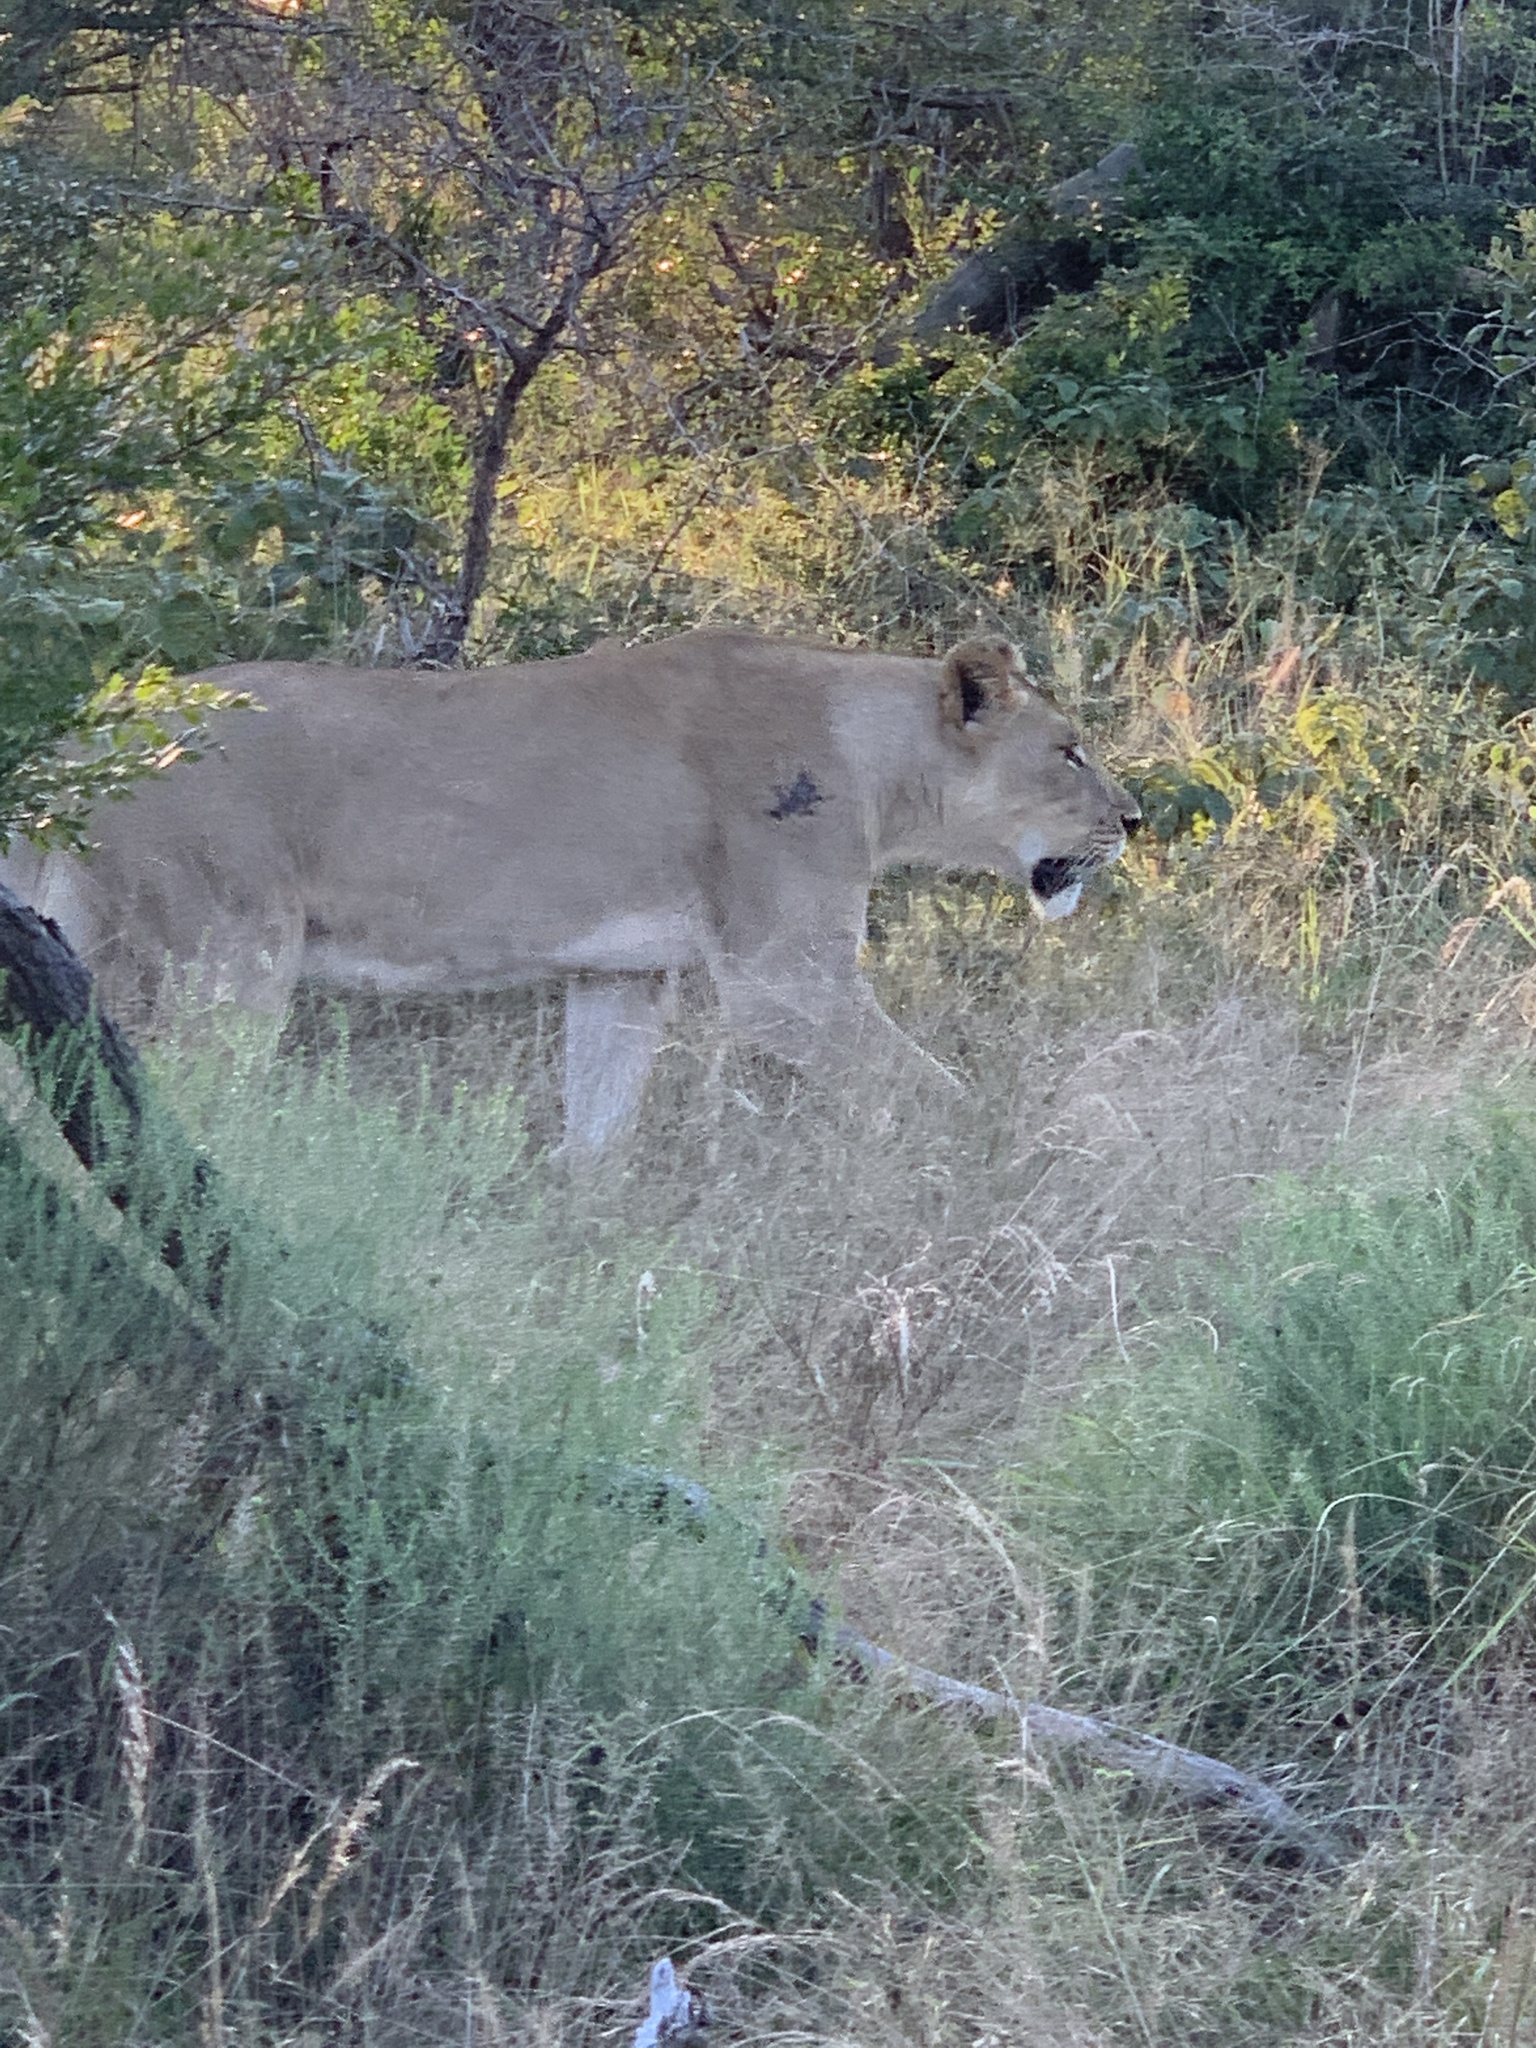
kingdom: Animalia
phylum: Chordata
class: Mammalia
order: Carnivora
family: Felidae
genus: Panthera
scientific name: Panthera leo
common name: Lion
